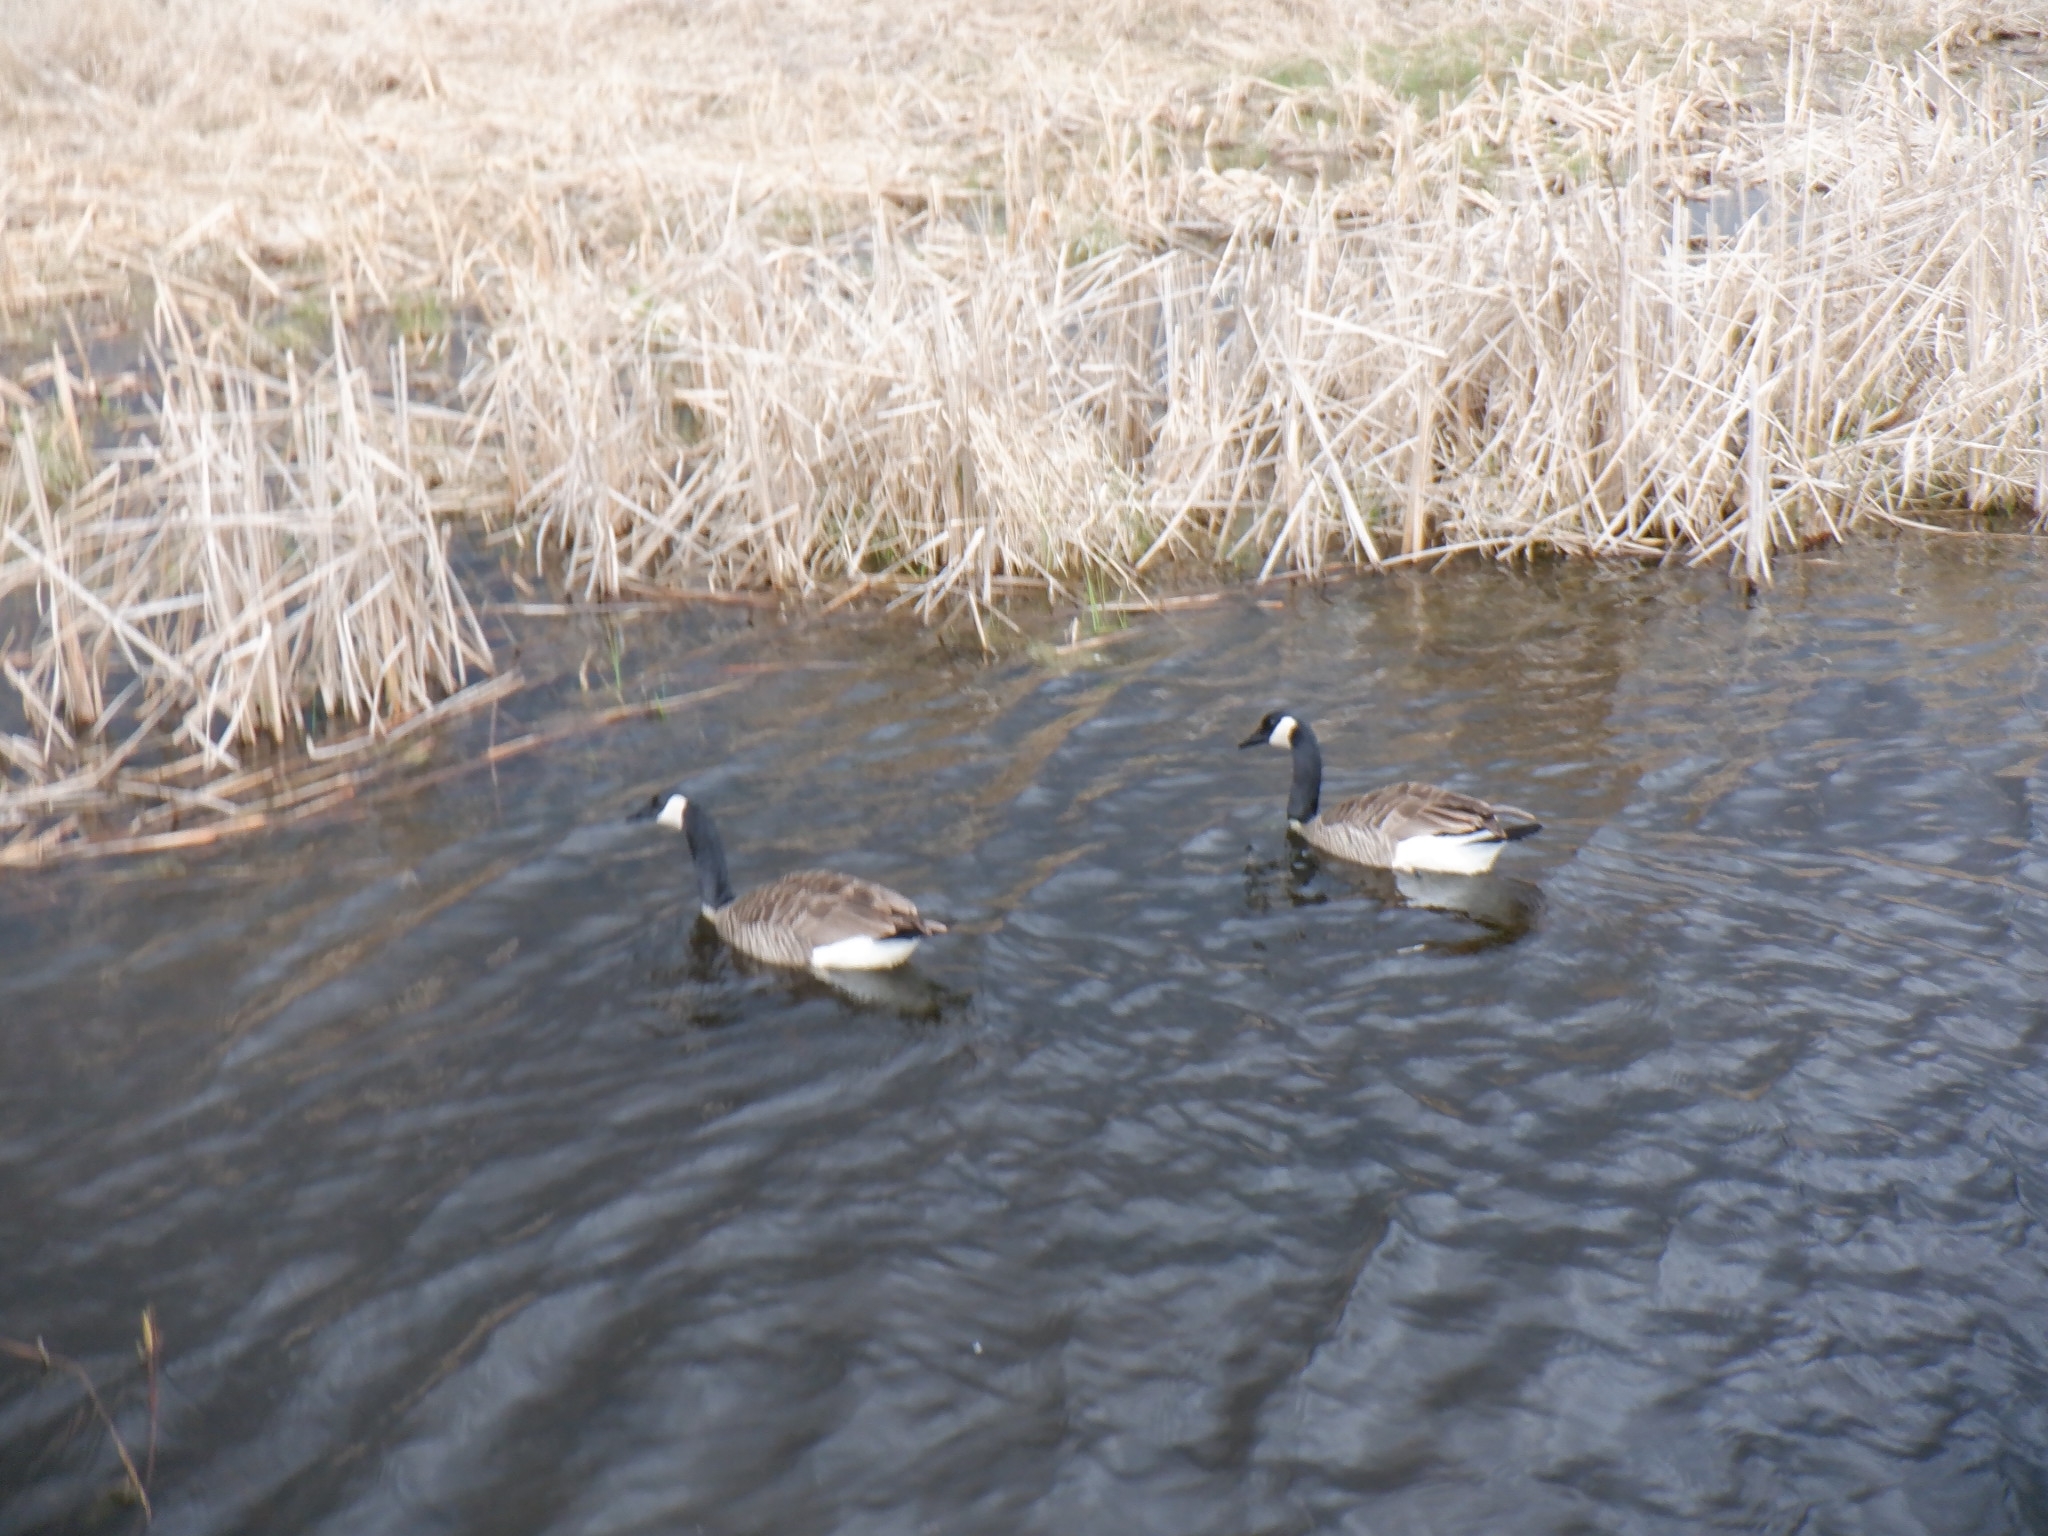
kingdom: Animalia
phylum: Chordata
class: Aves
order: Anseriformes
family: Anatidae
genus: Branta
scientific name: Branta canadensis
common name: Canada goose
